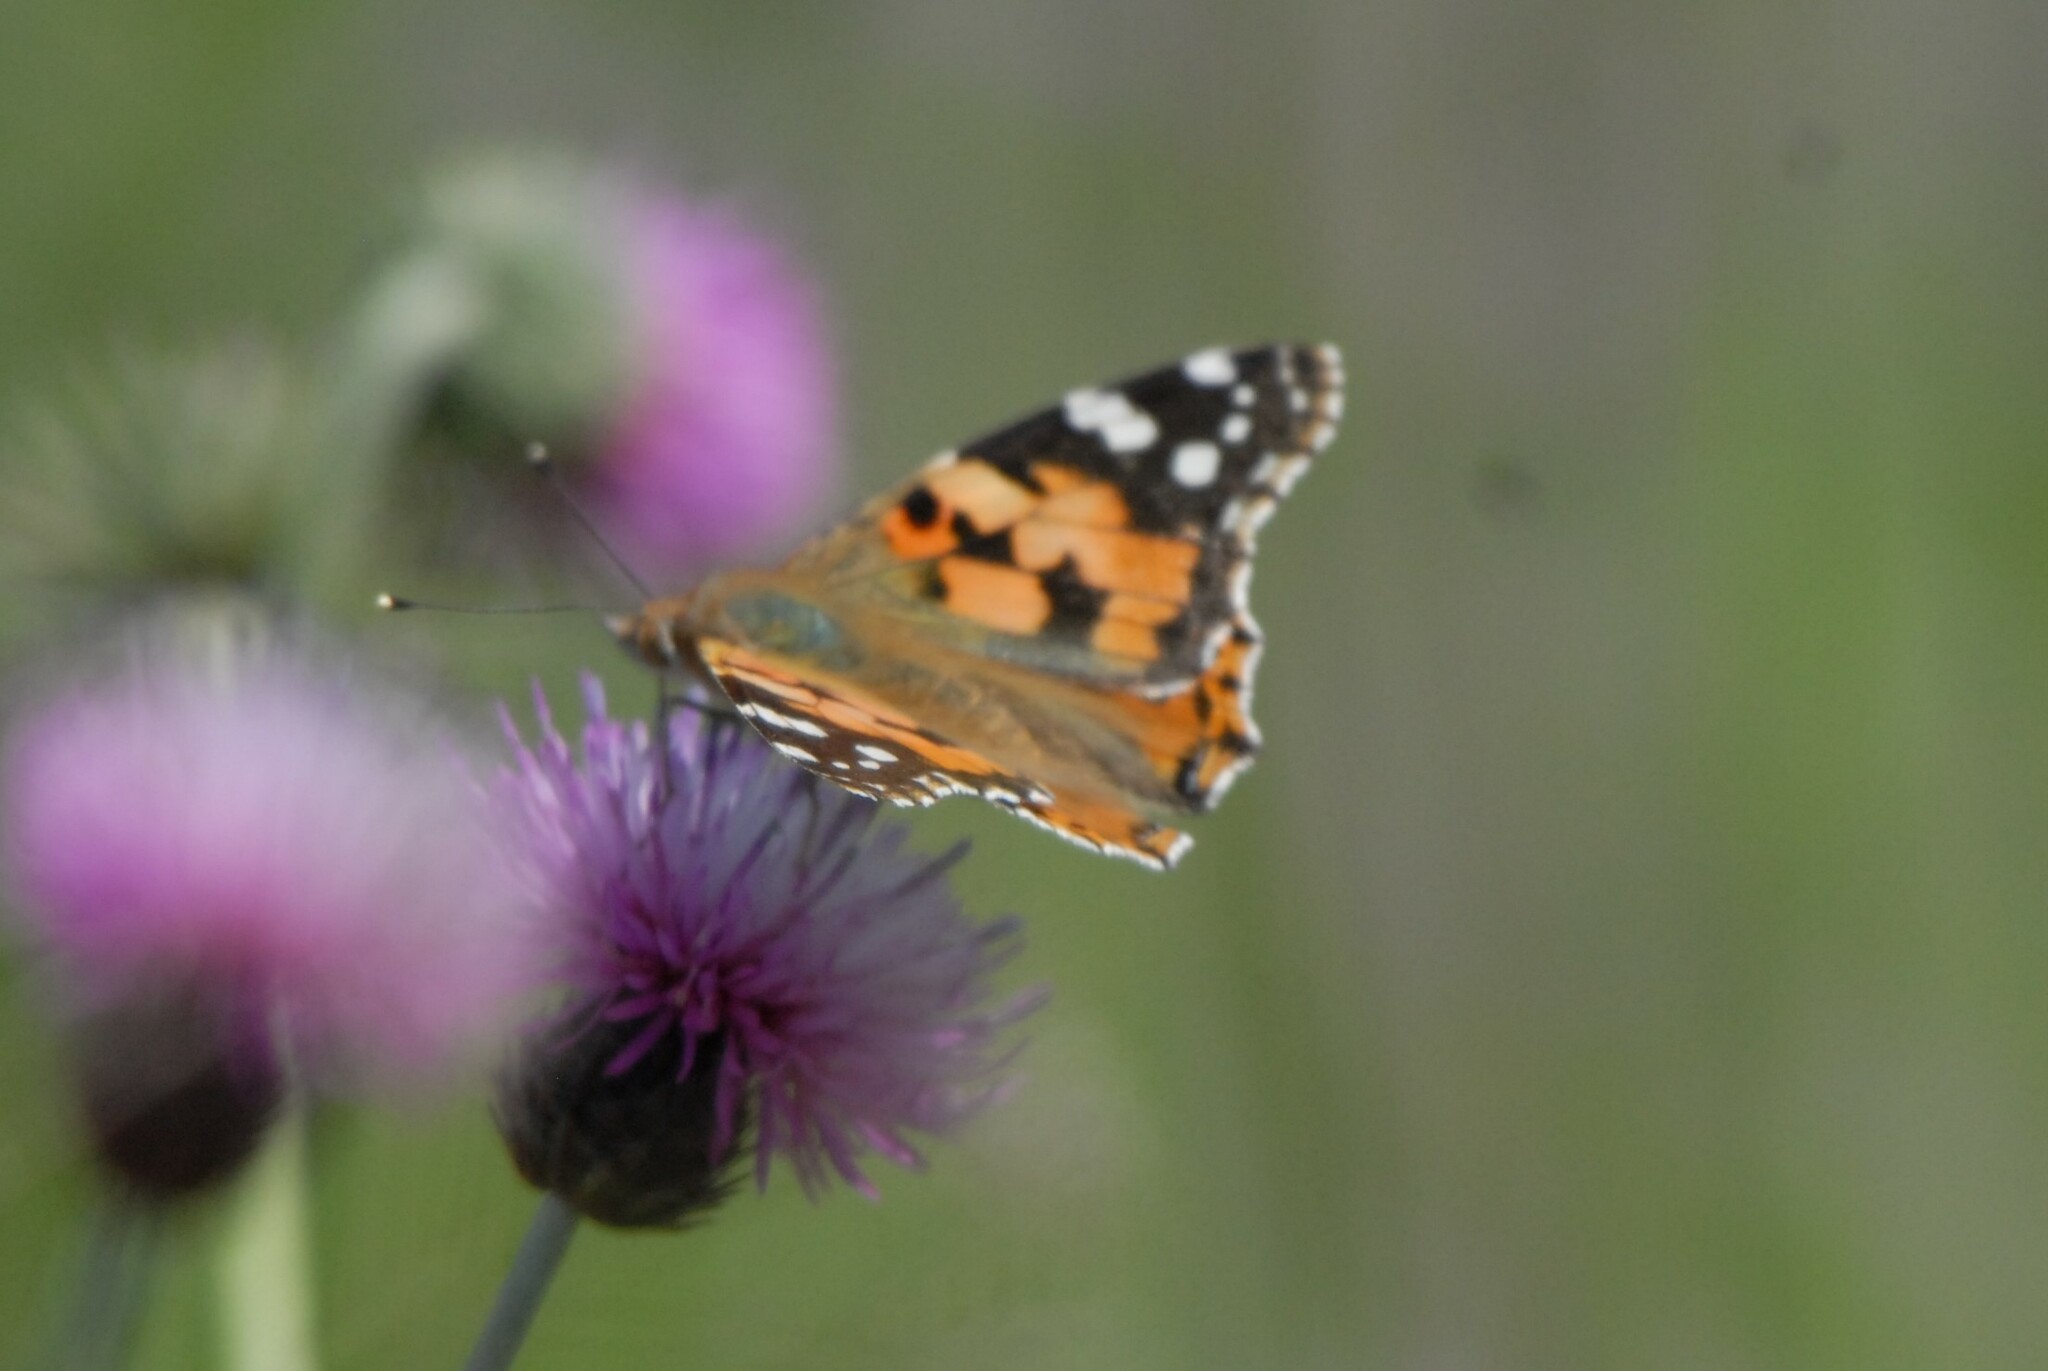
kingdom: Animalia
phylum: Arthropoda
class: Insecta
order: Lepidoptera
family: Nymphalidae
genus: Vanessa
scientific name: Vanessa cardui
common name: Painted lady
